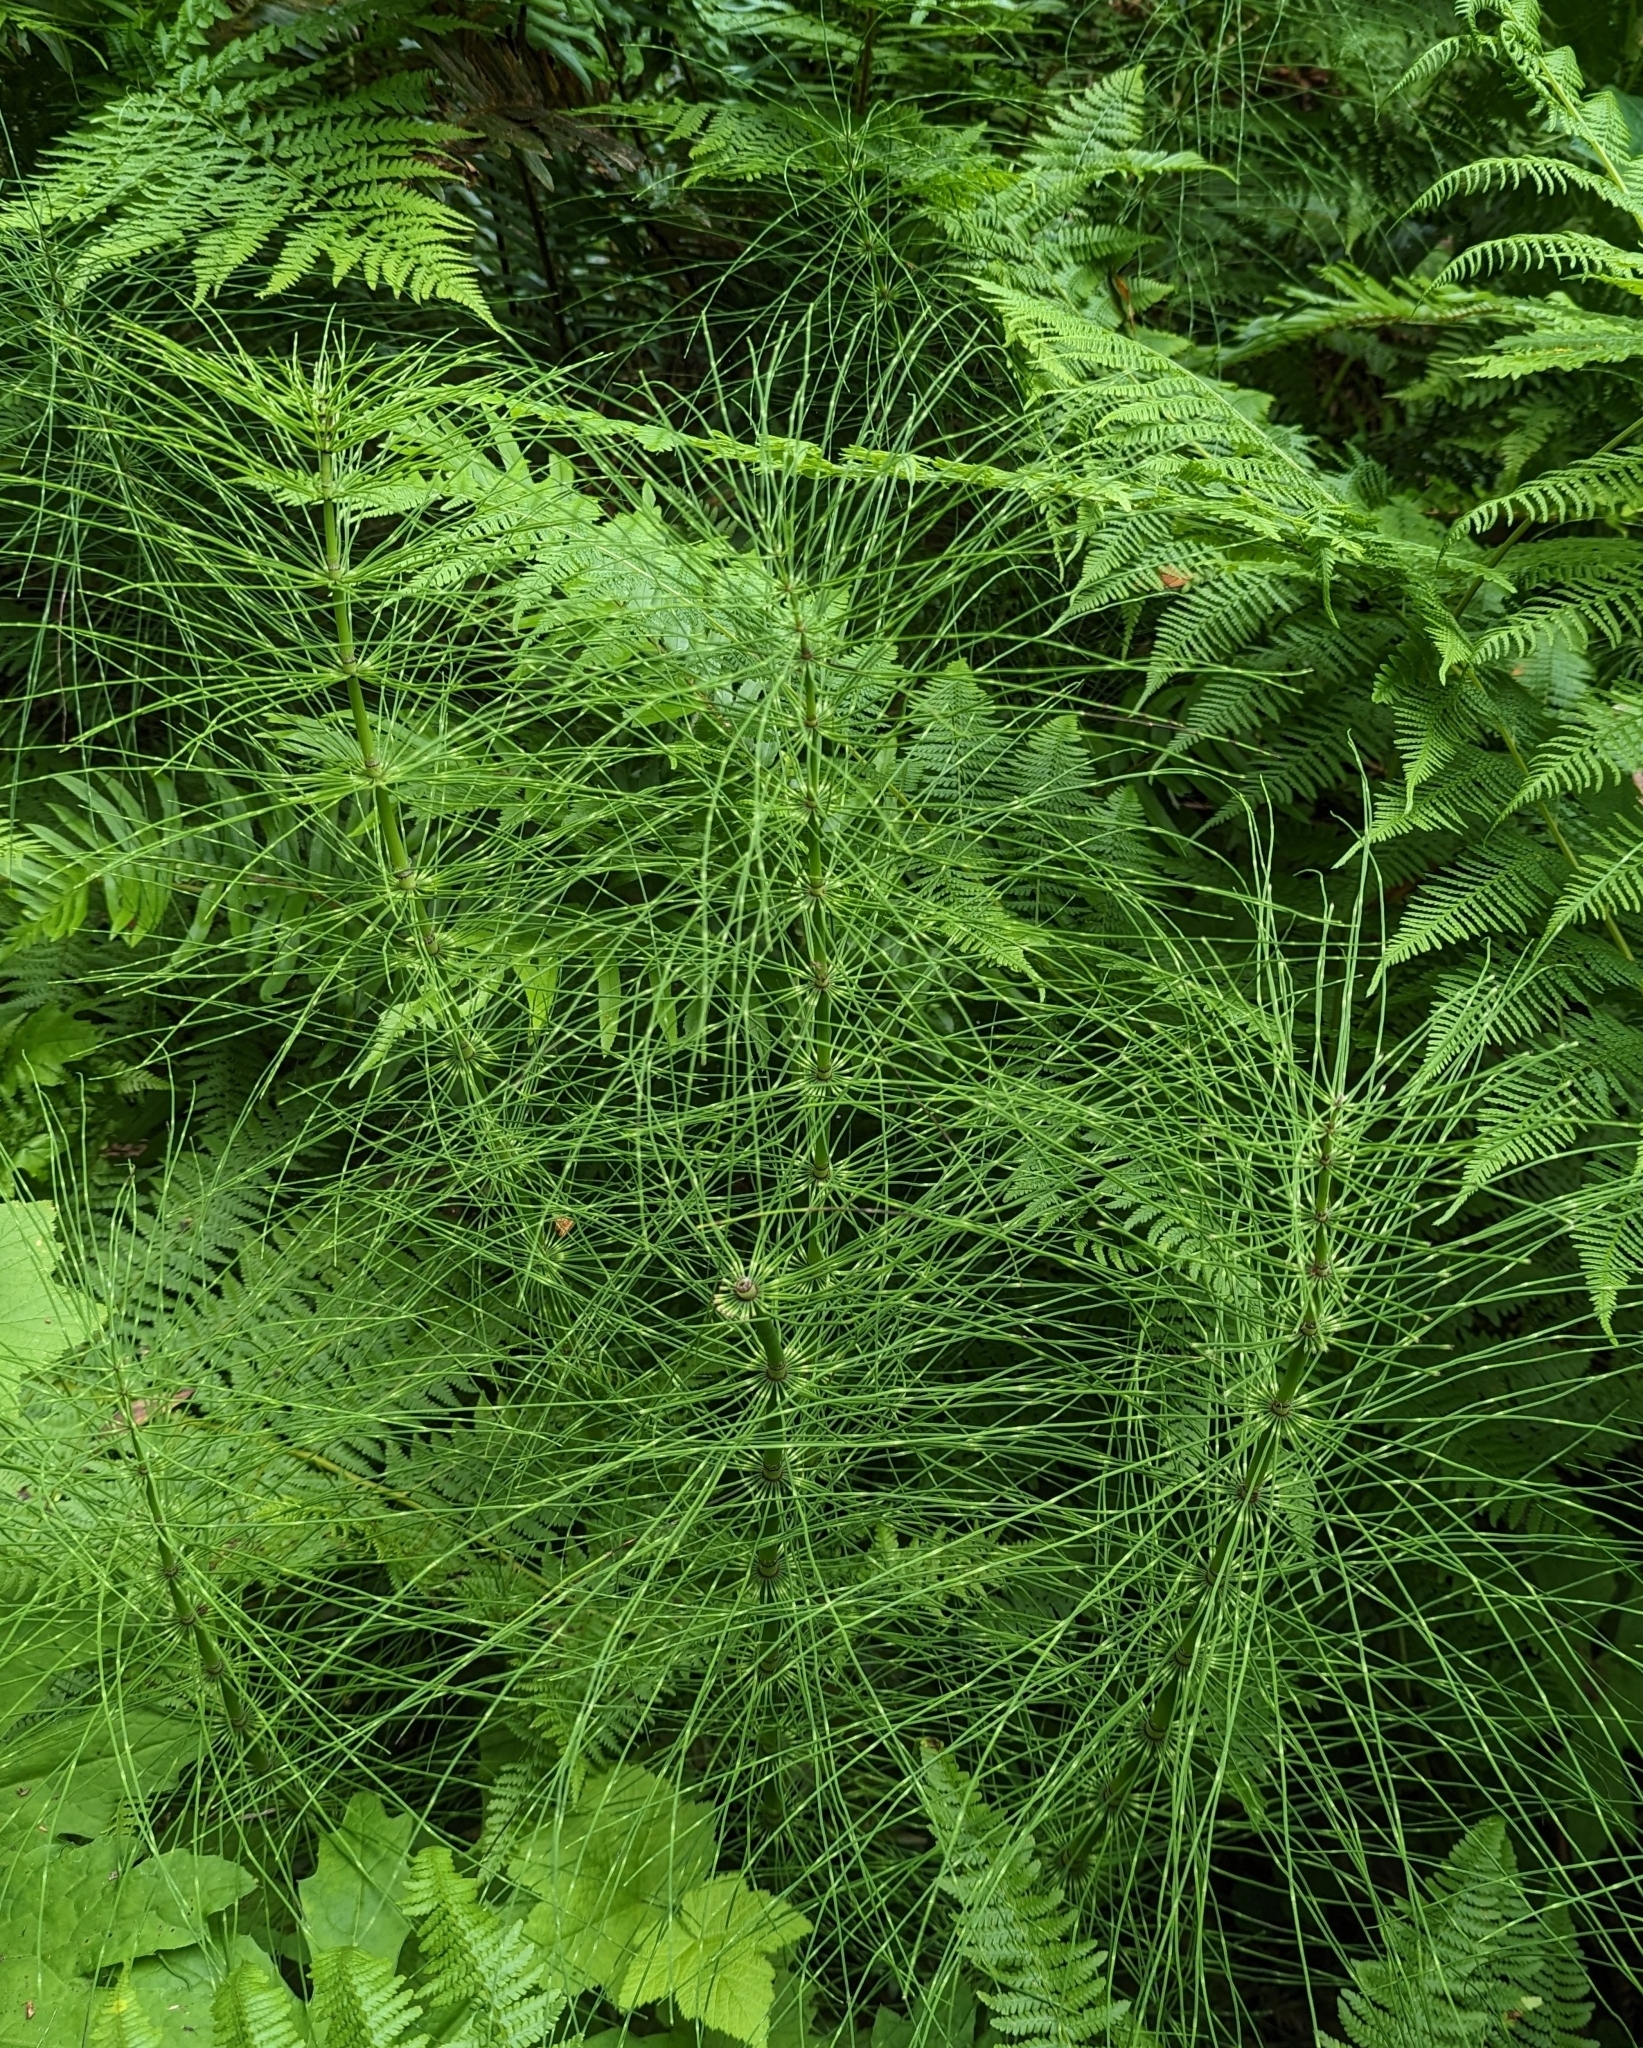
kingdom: Plantae
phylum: Tracheophyta
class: Polypodiopsida
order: Equisetales
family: Equisetaceae
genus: Equisetum
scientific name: Equisetum telmateia
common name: Great horsetail
